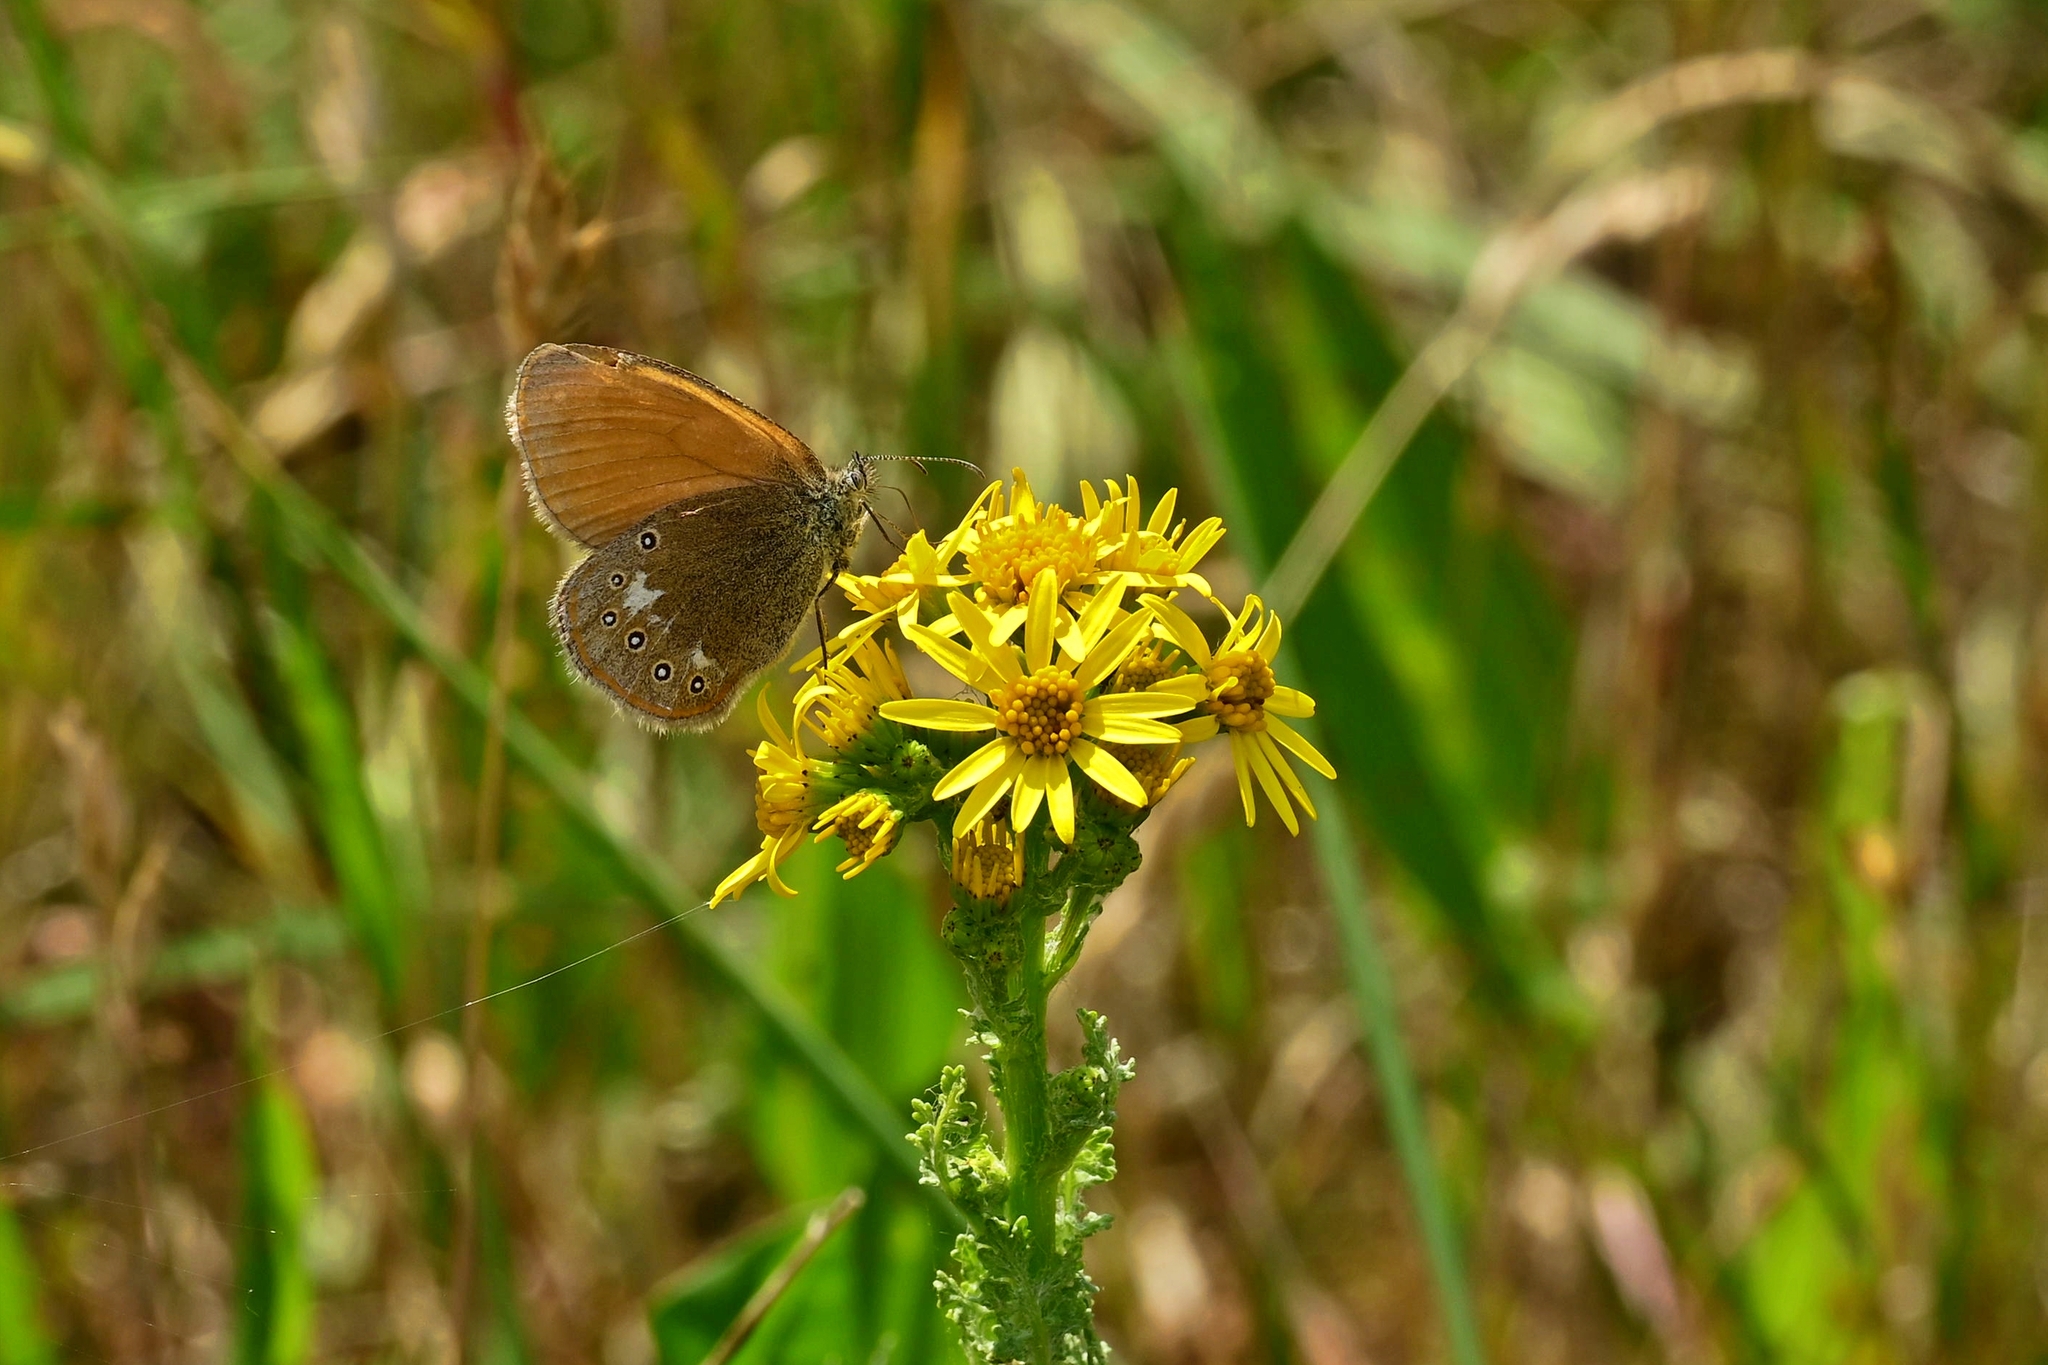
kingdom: Animalia
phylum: Arthropoda
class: Insecta
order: Lepidoptera
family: Nymphalidae
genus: Coenonympha
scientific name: Coenonympha iphis
